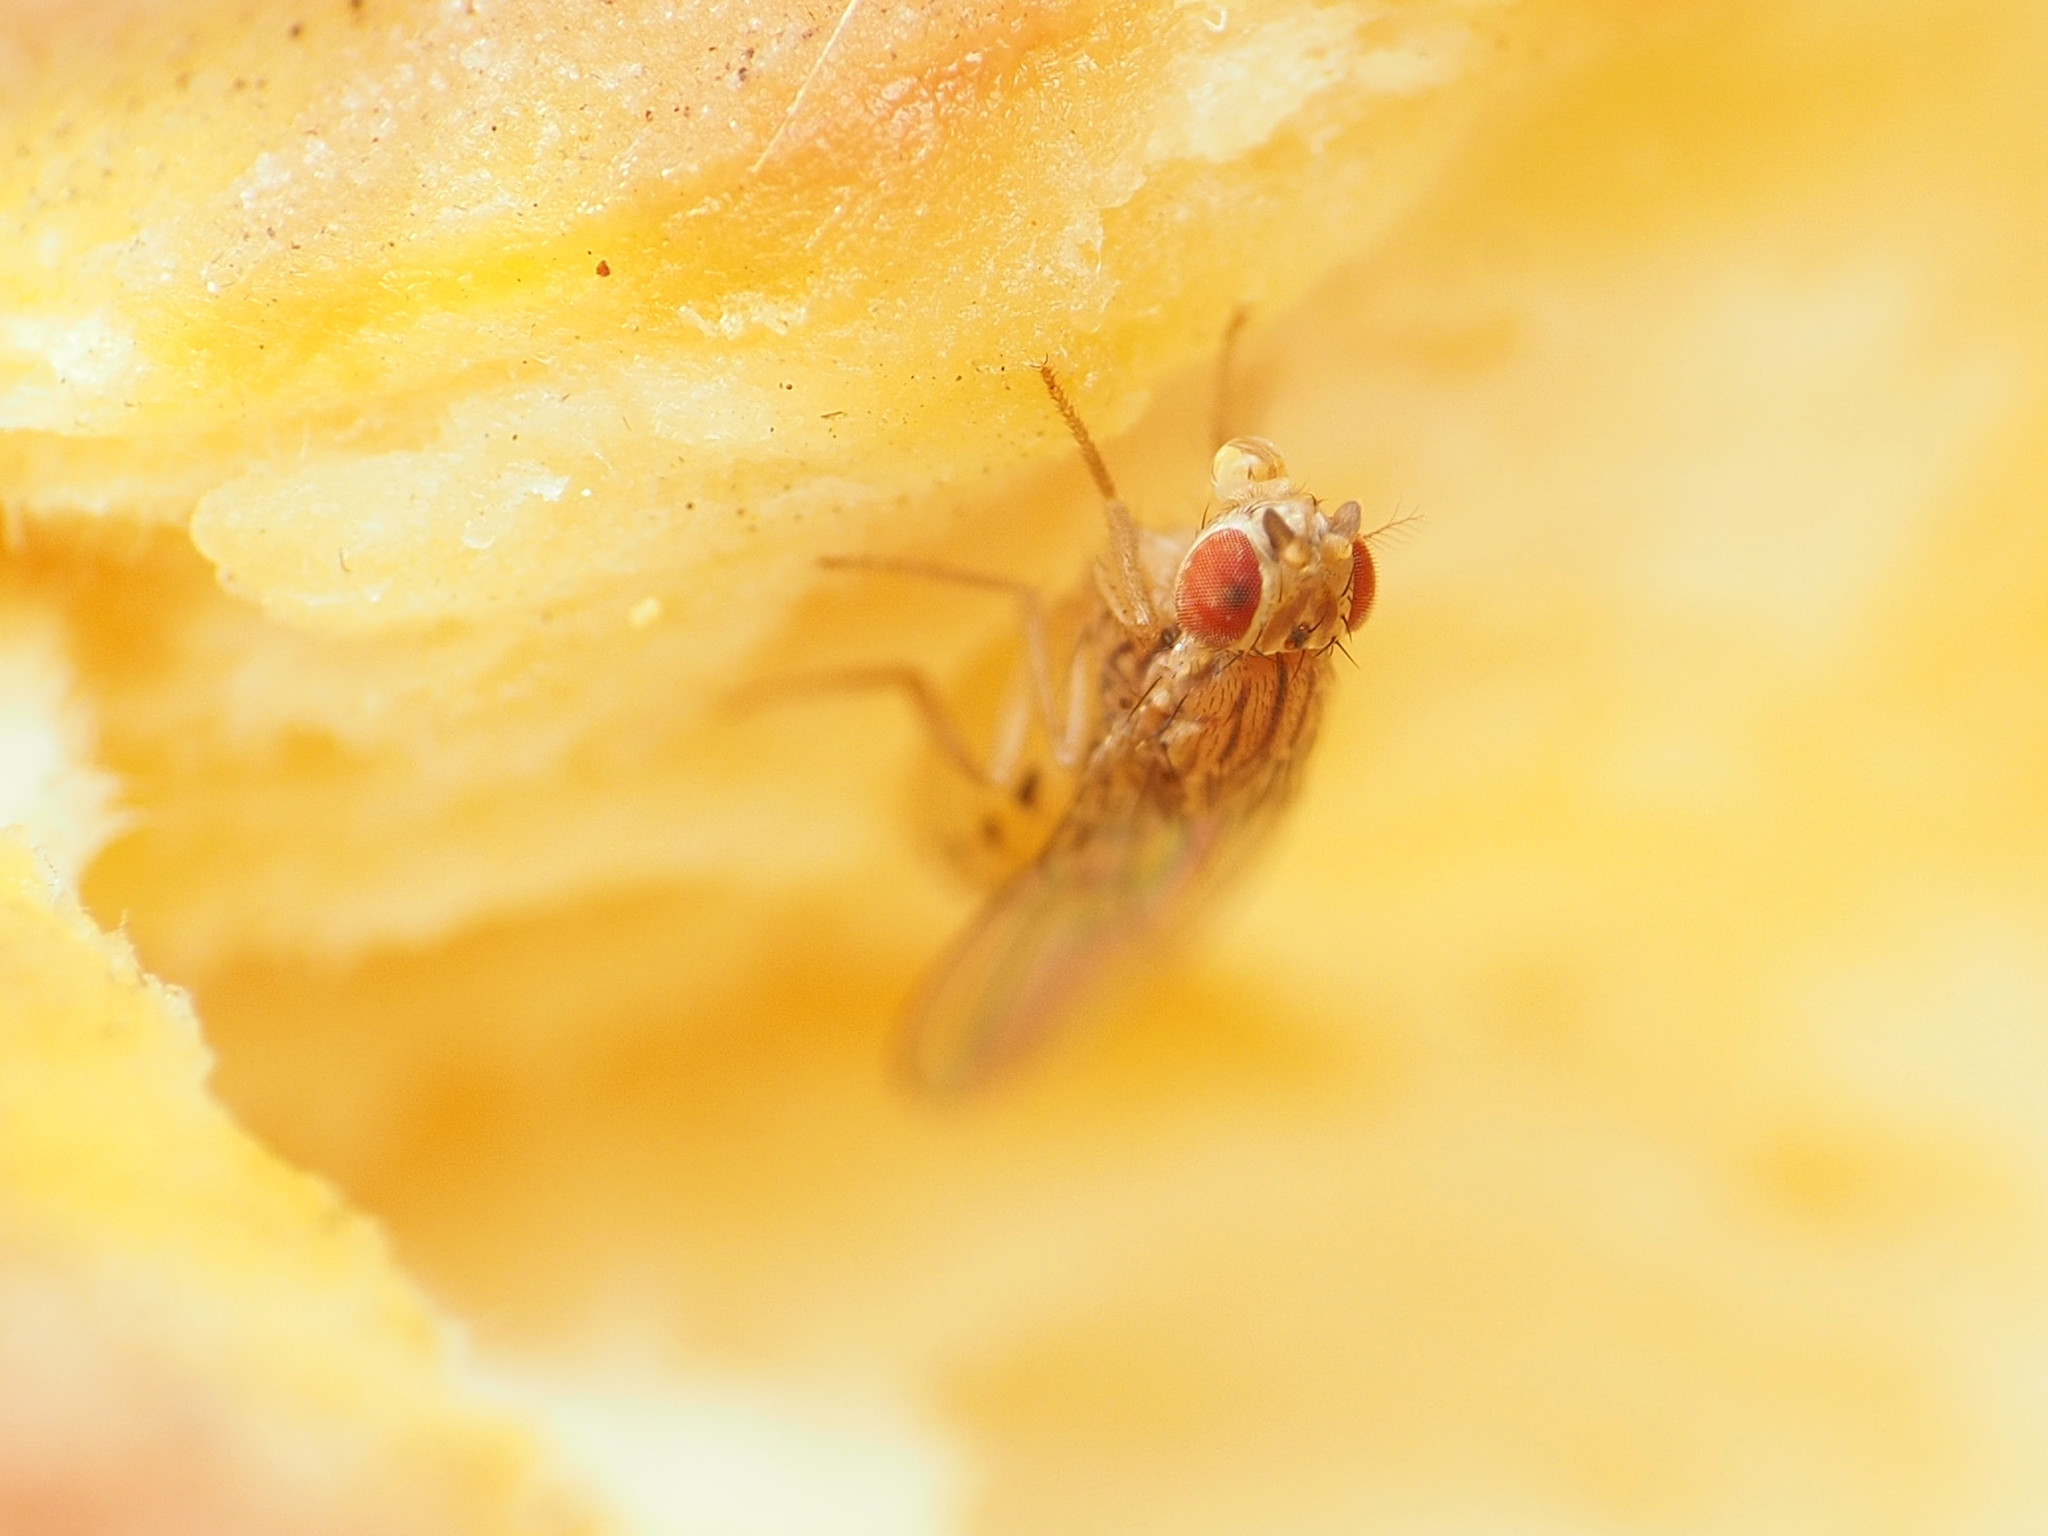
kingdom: Animalia
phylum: Arthropoda
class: Insecta
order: Diptera
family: Drosophilidae
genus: Drosophila
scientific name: Drosophila busckii
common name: Pomace fly
